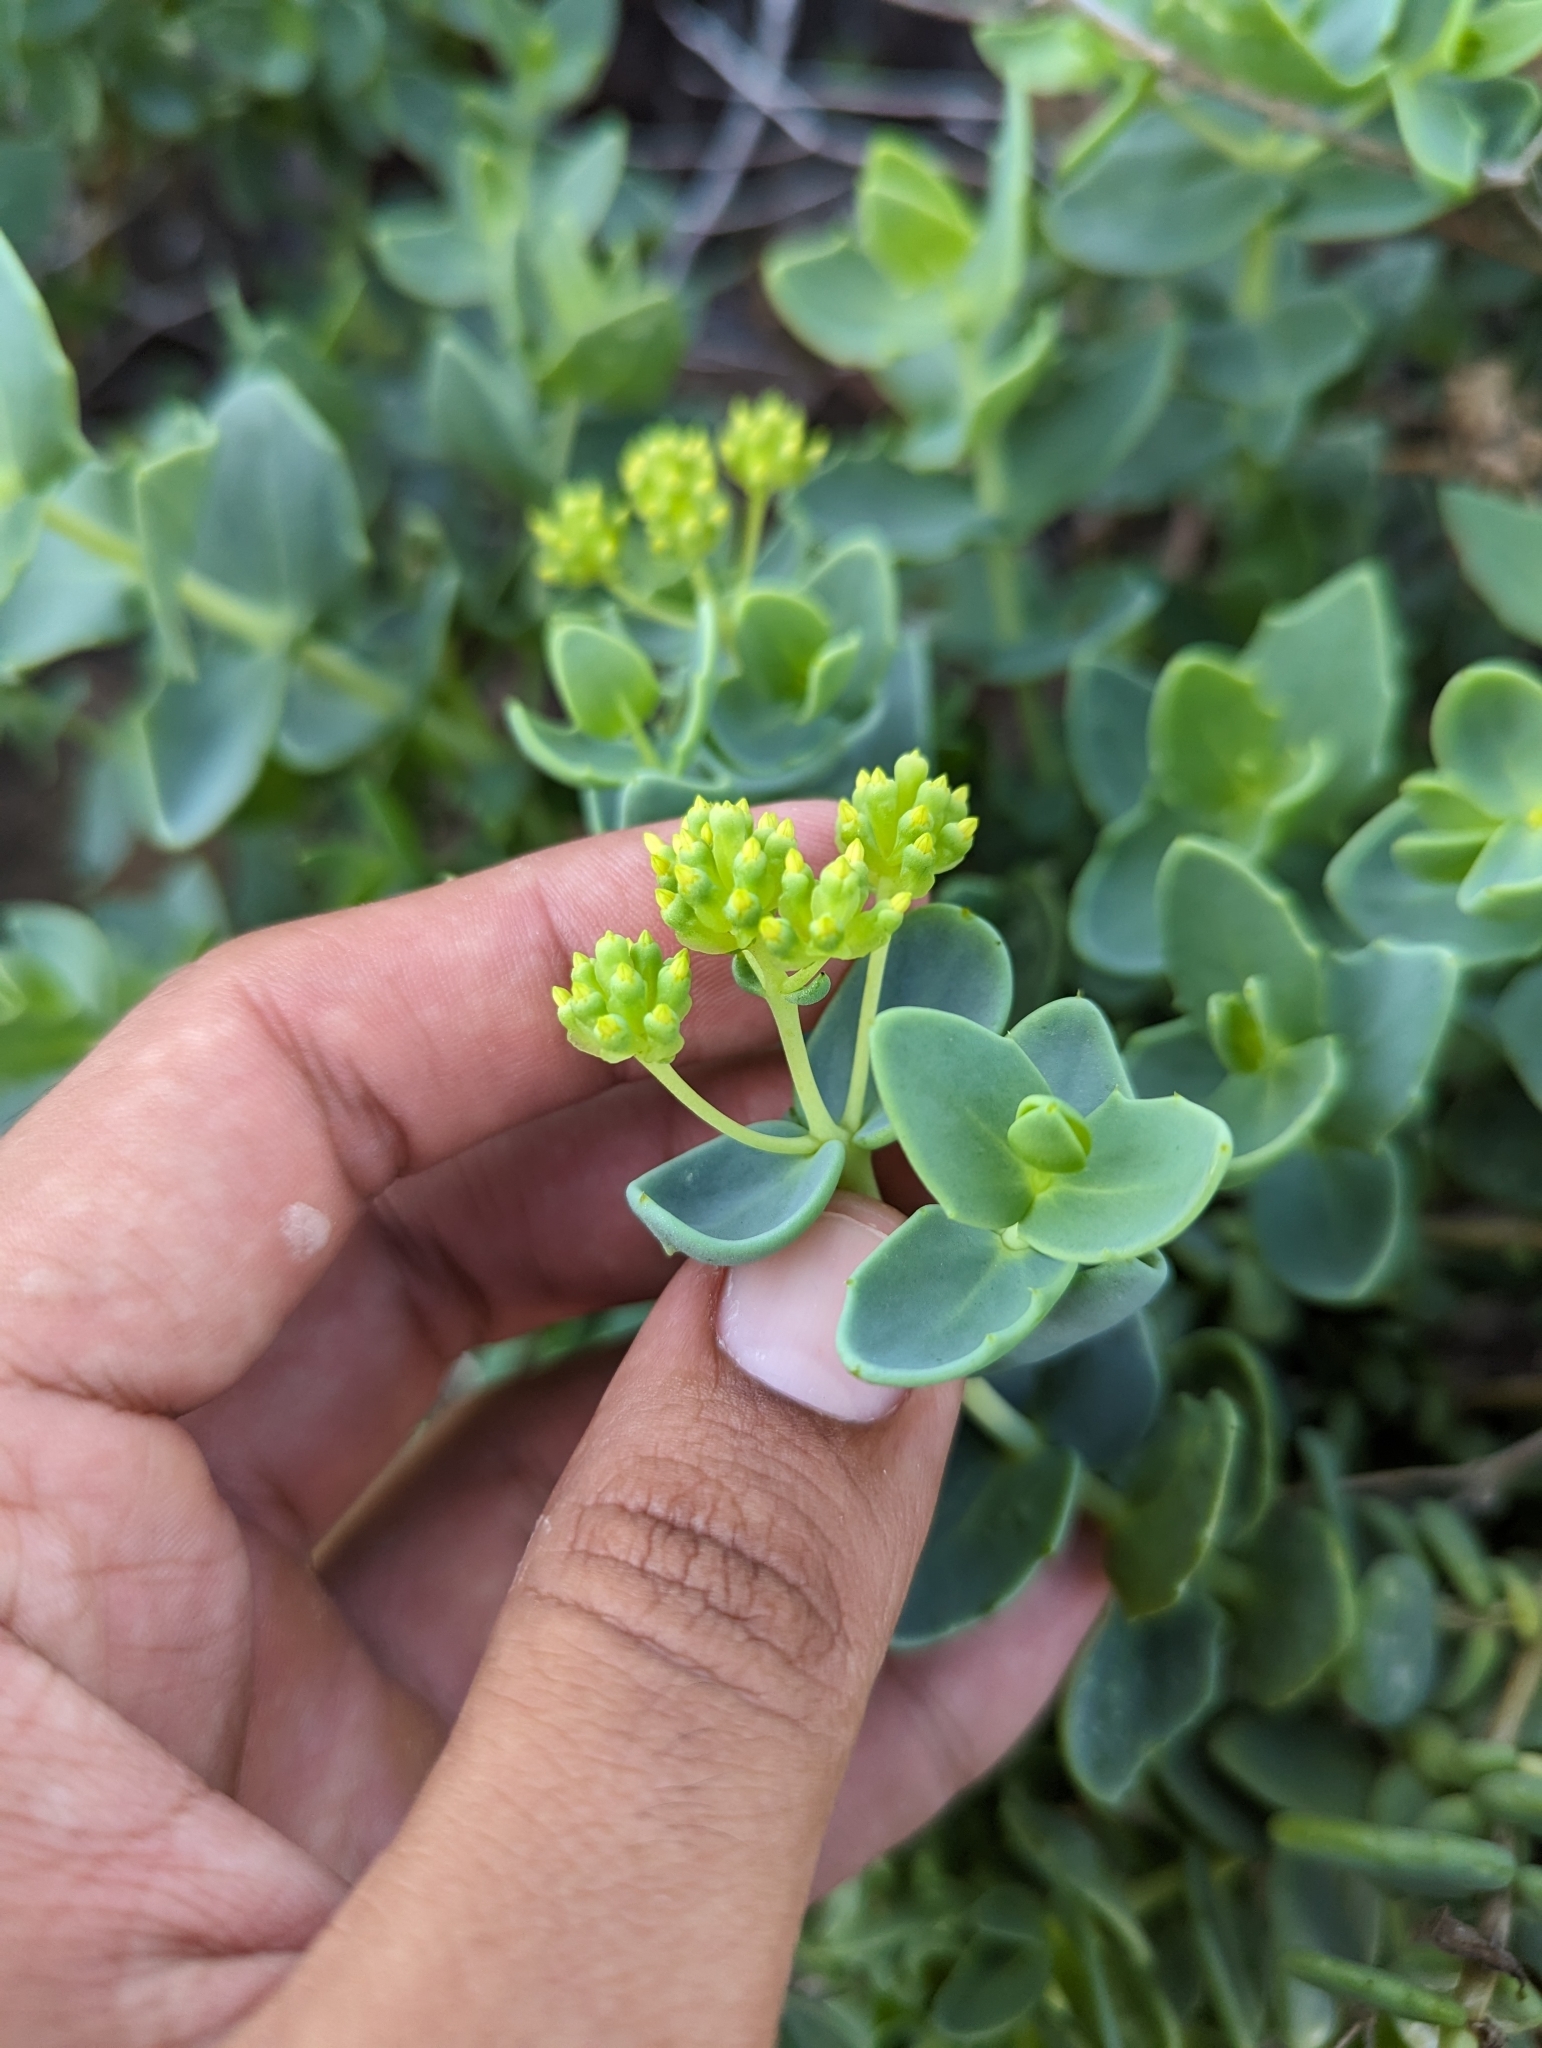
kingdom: Plantae
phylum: Tracheophyta
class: Magnoliopsida
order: Asterales
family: Asteraceae
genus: Coulterella
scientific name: Coulterella capitata
